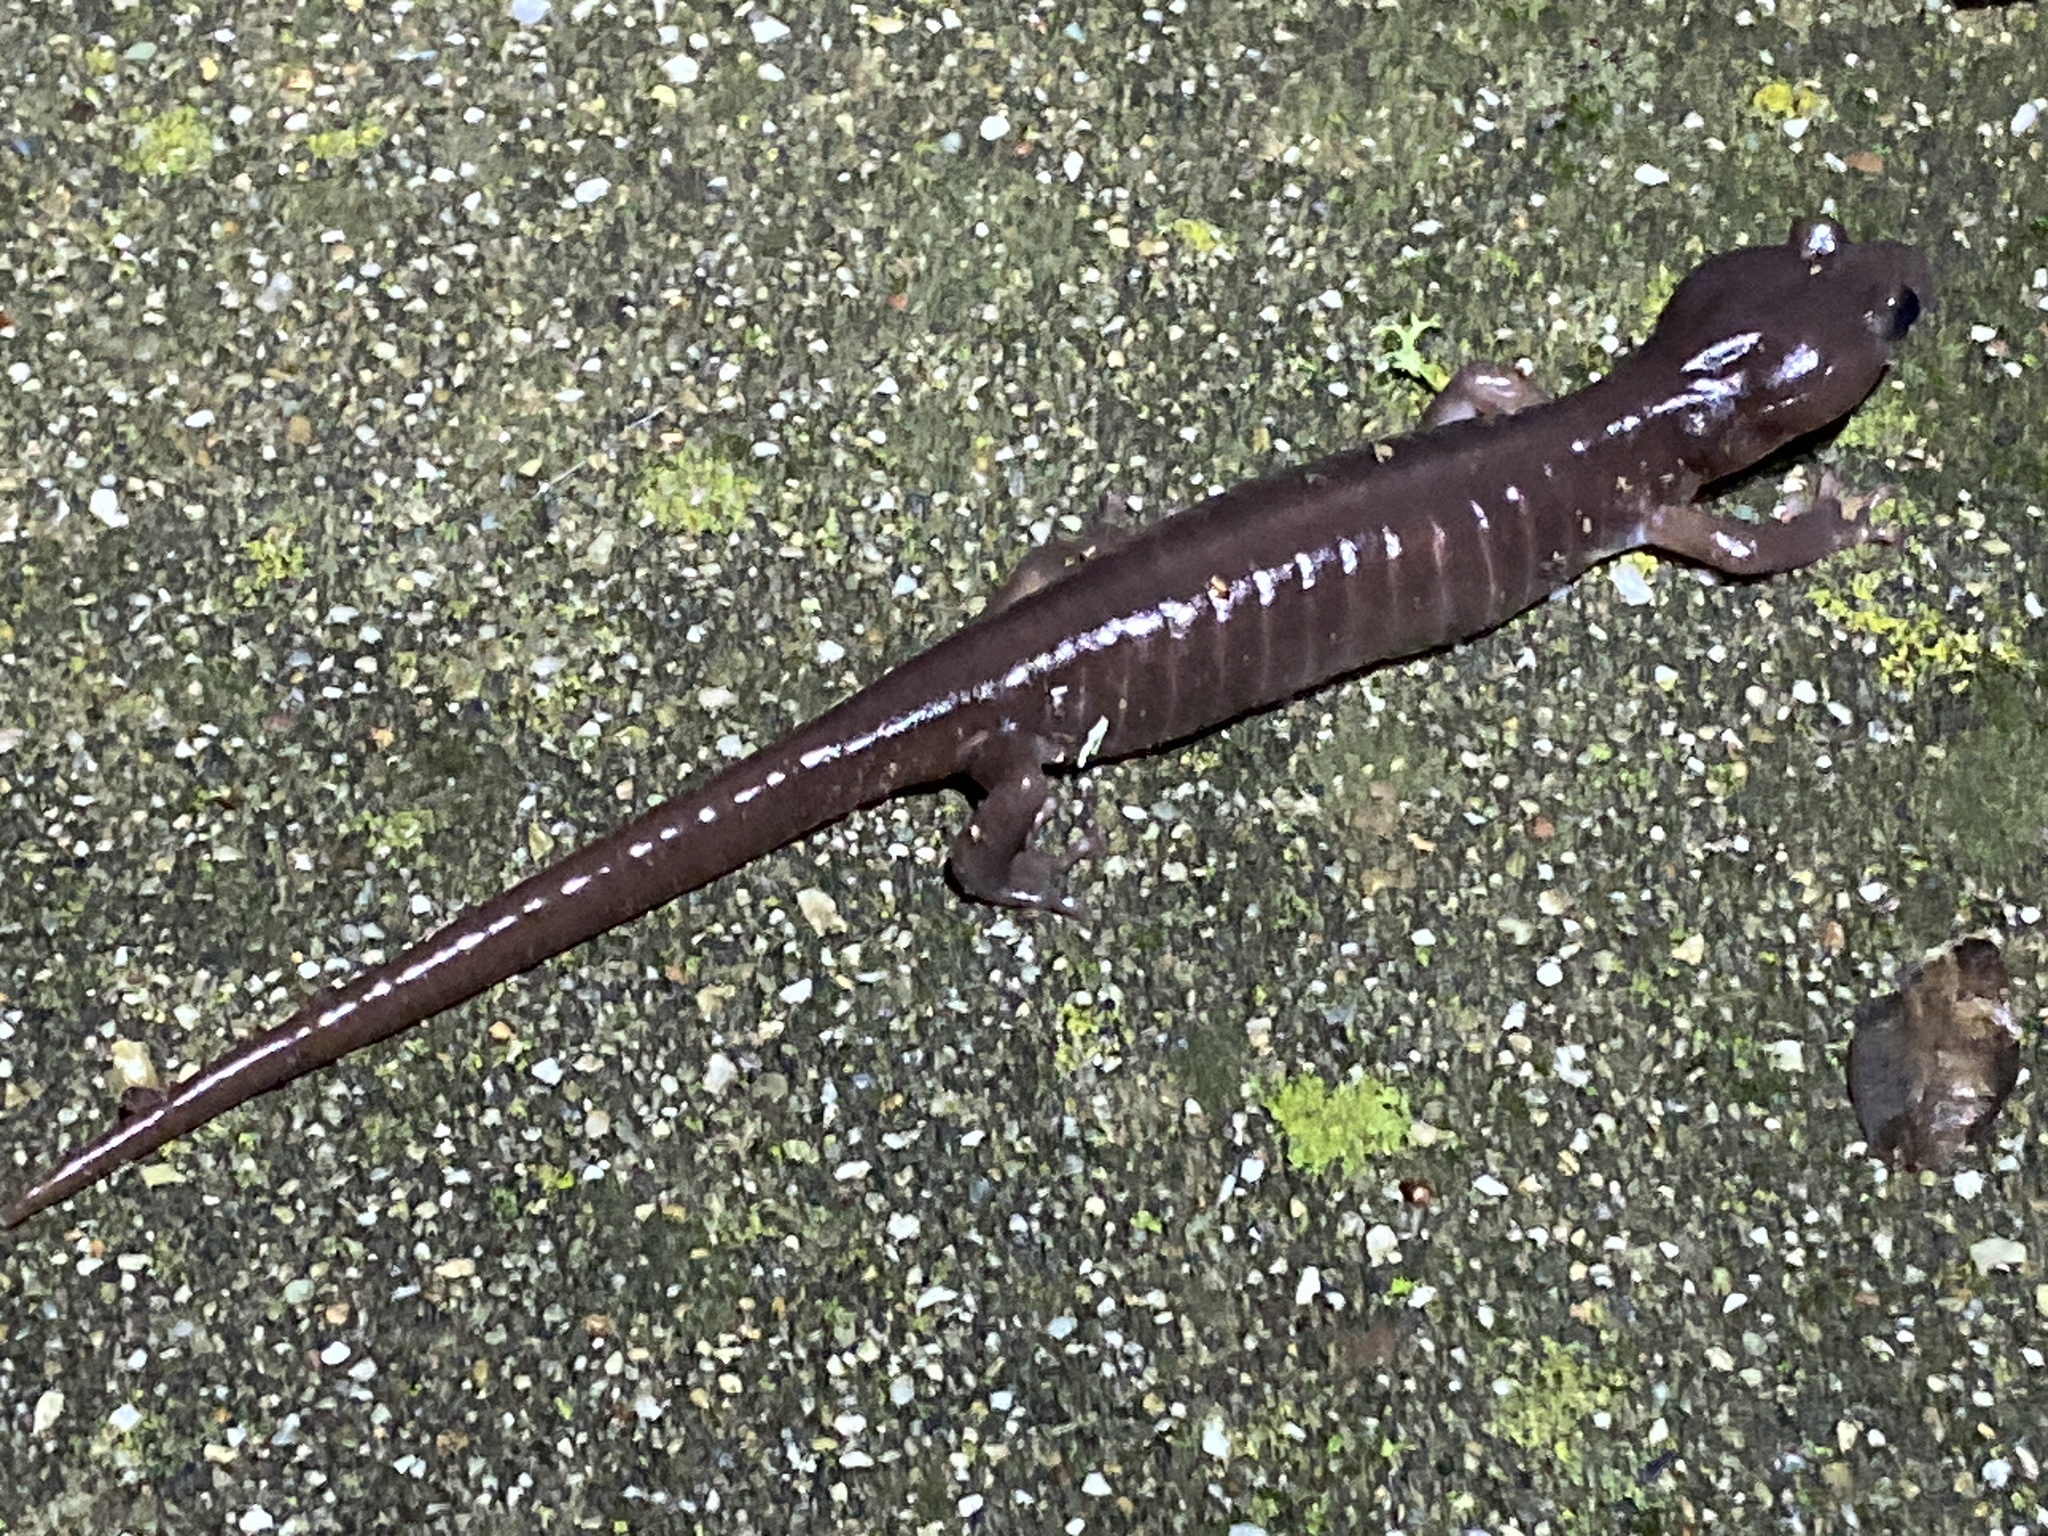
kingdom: Animalia
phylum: Chordata
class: Amphibia
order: Caudata
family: Plethodontidae
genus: Aneides
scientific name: Aneides lugubris
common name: Arboreal salamander
